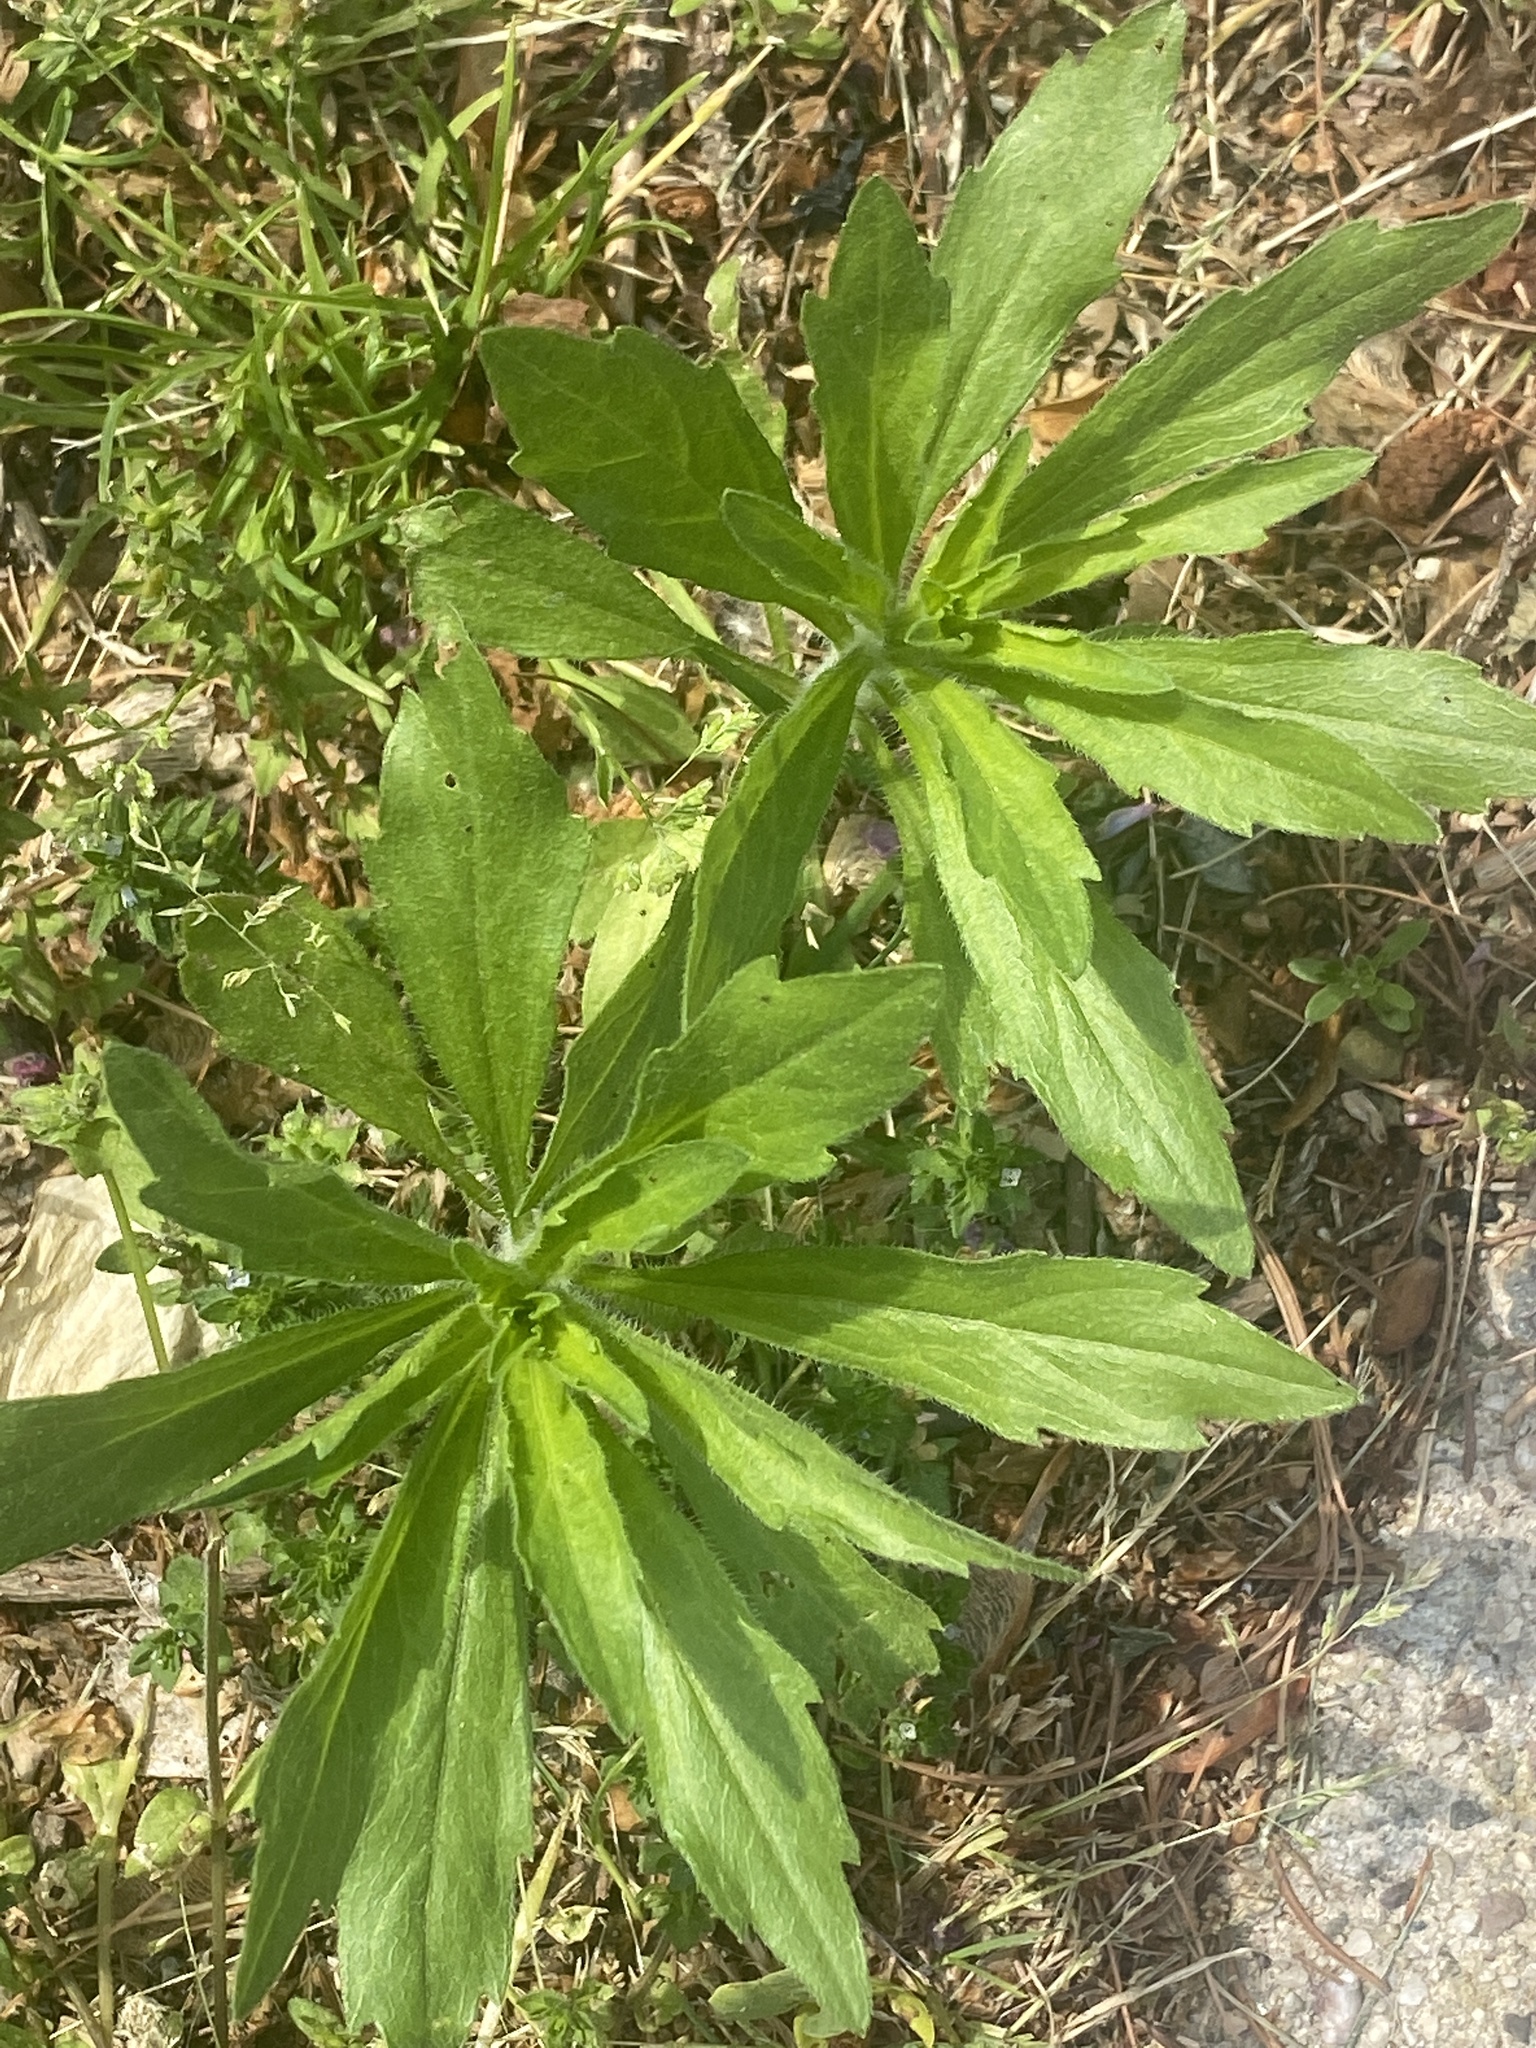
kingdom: Plantae
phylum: Tracheophyta
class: Magnoliopsida
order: Asterales
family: Asteraceae
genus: Erigeron
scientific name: Erigeron canadensis
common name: Canadian fleabane
